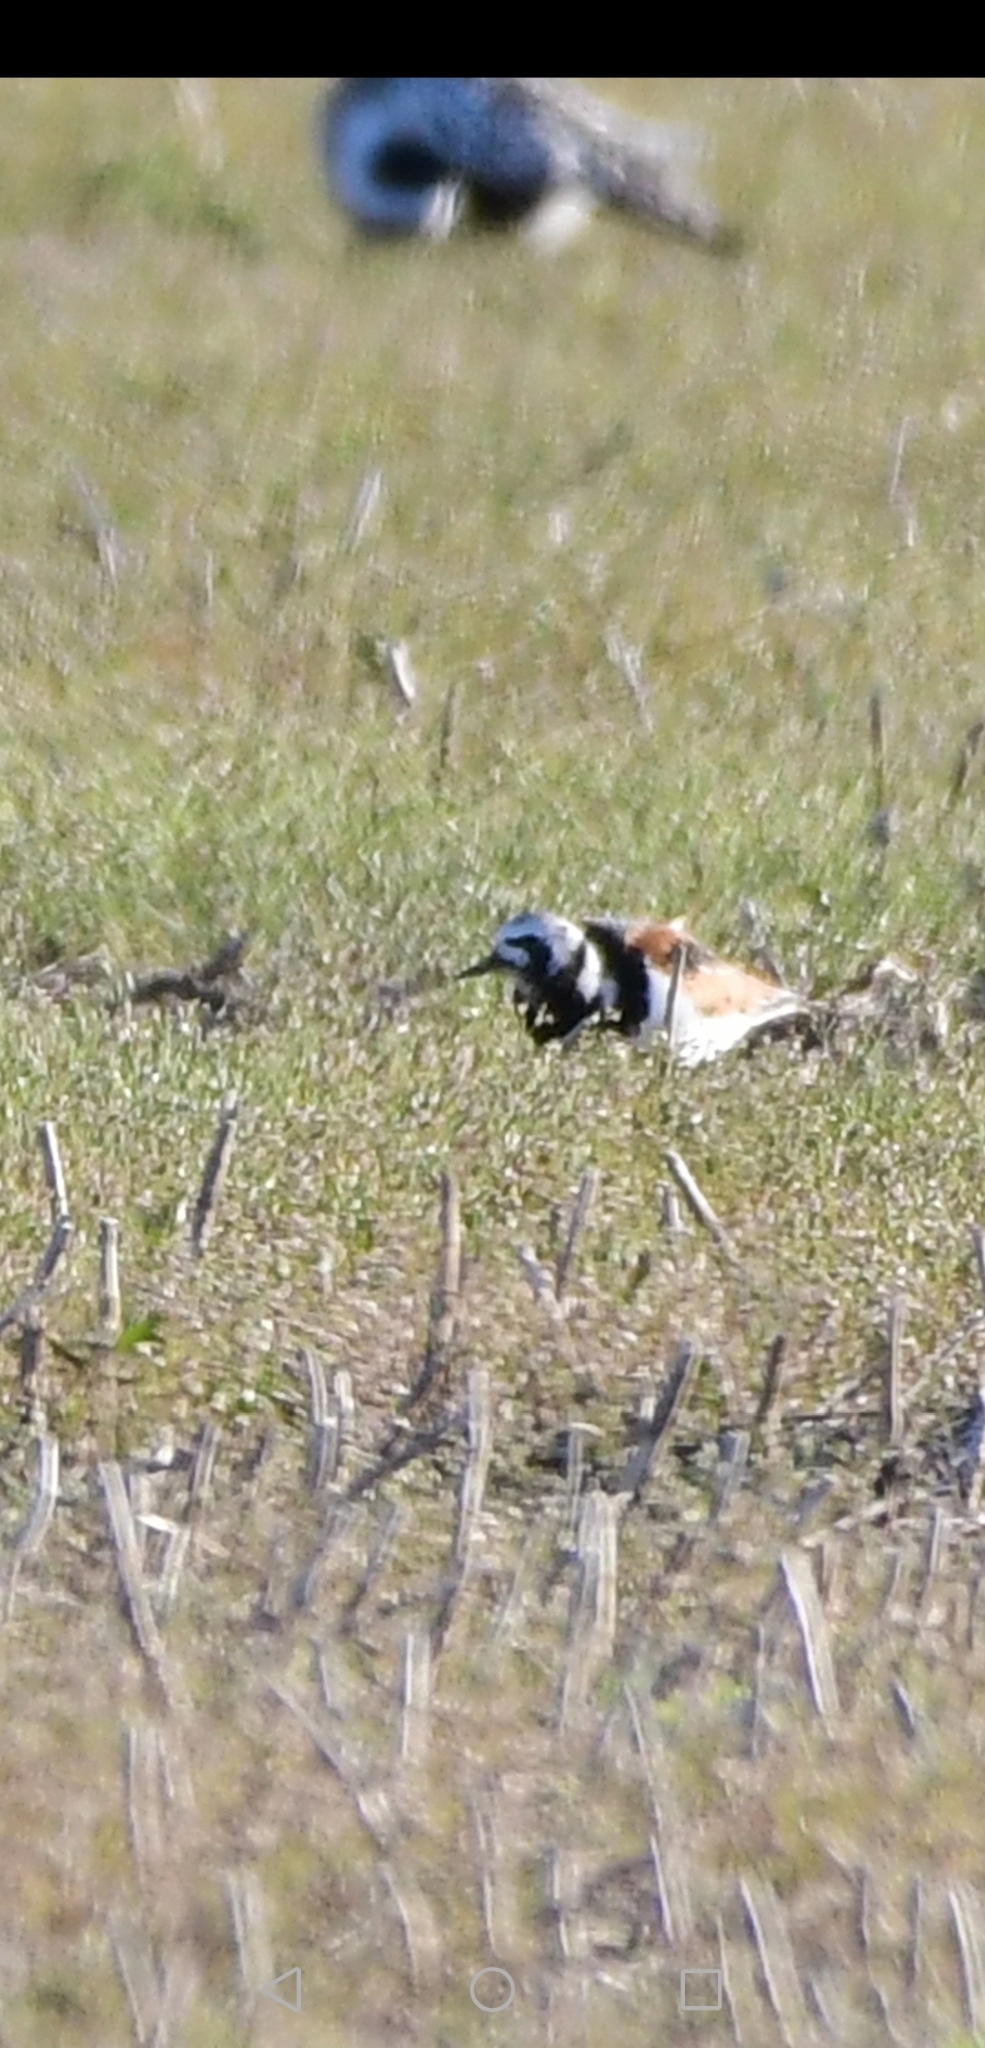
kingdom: Animalia
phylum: Chordata
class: Aves
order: Charadriiformes
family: Scolopacidae
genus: Arenaria
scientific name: Arenaria interpres
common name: Ruddy turnstone
